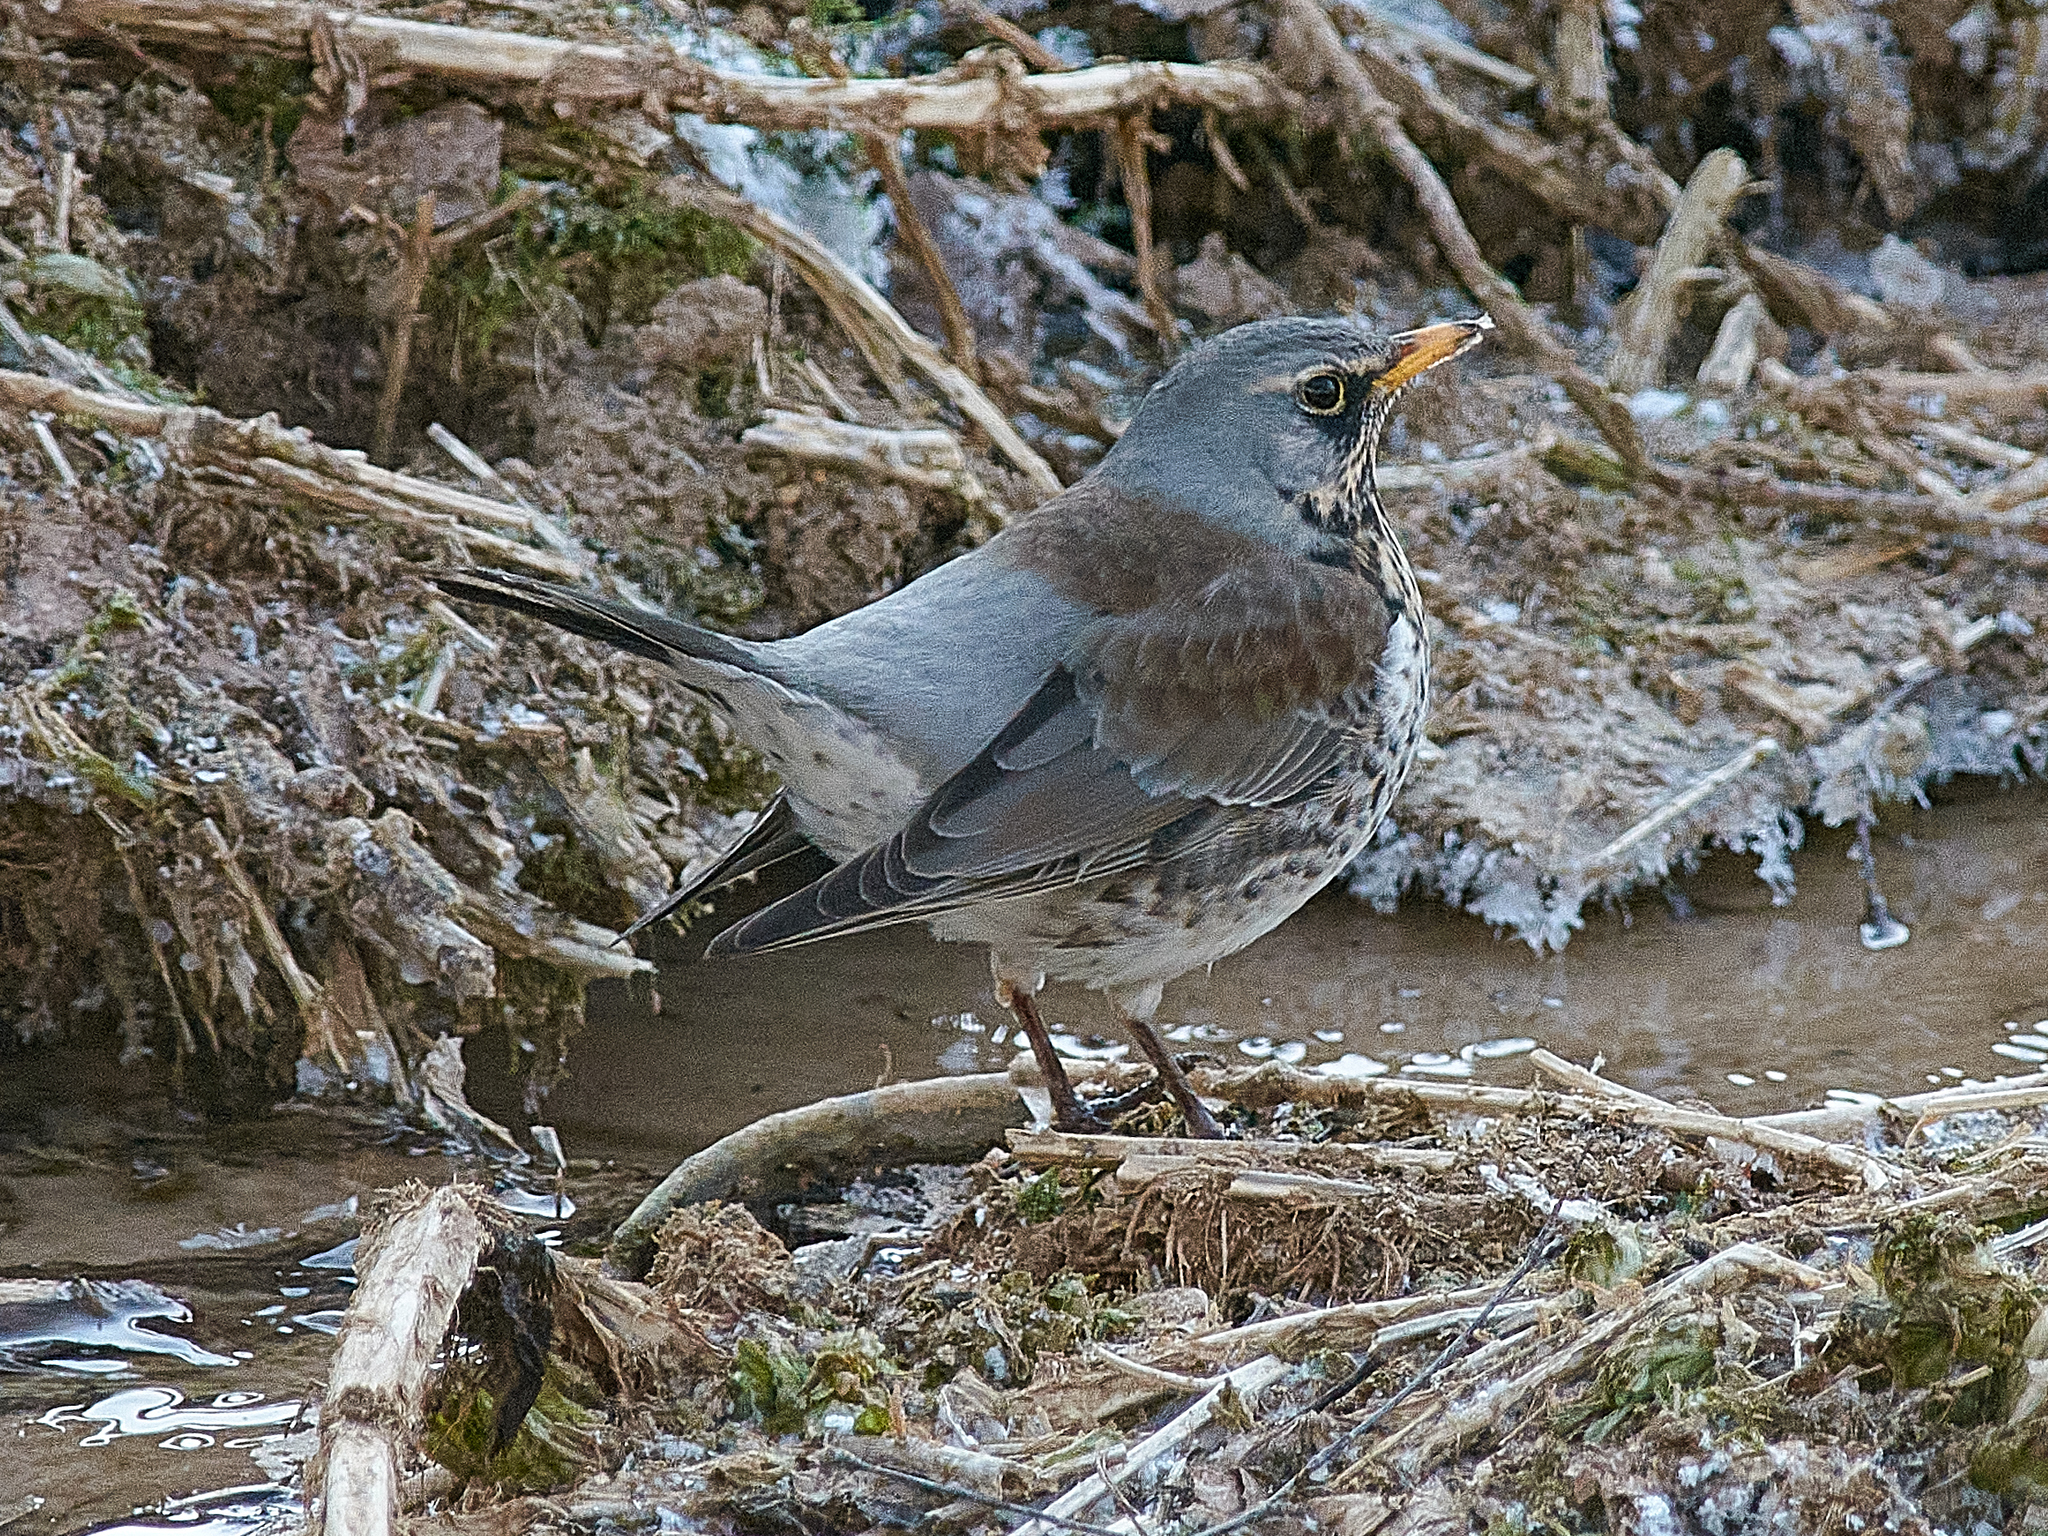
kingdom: Animalia
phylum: Chordata
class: Aves
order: Passeriformes
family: Turdidae
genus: Turdus
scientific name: Turdus pilaris
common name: Fieldfare
